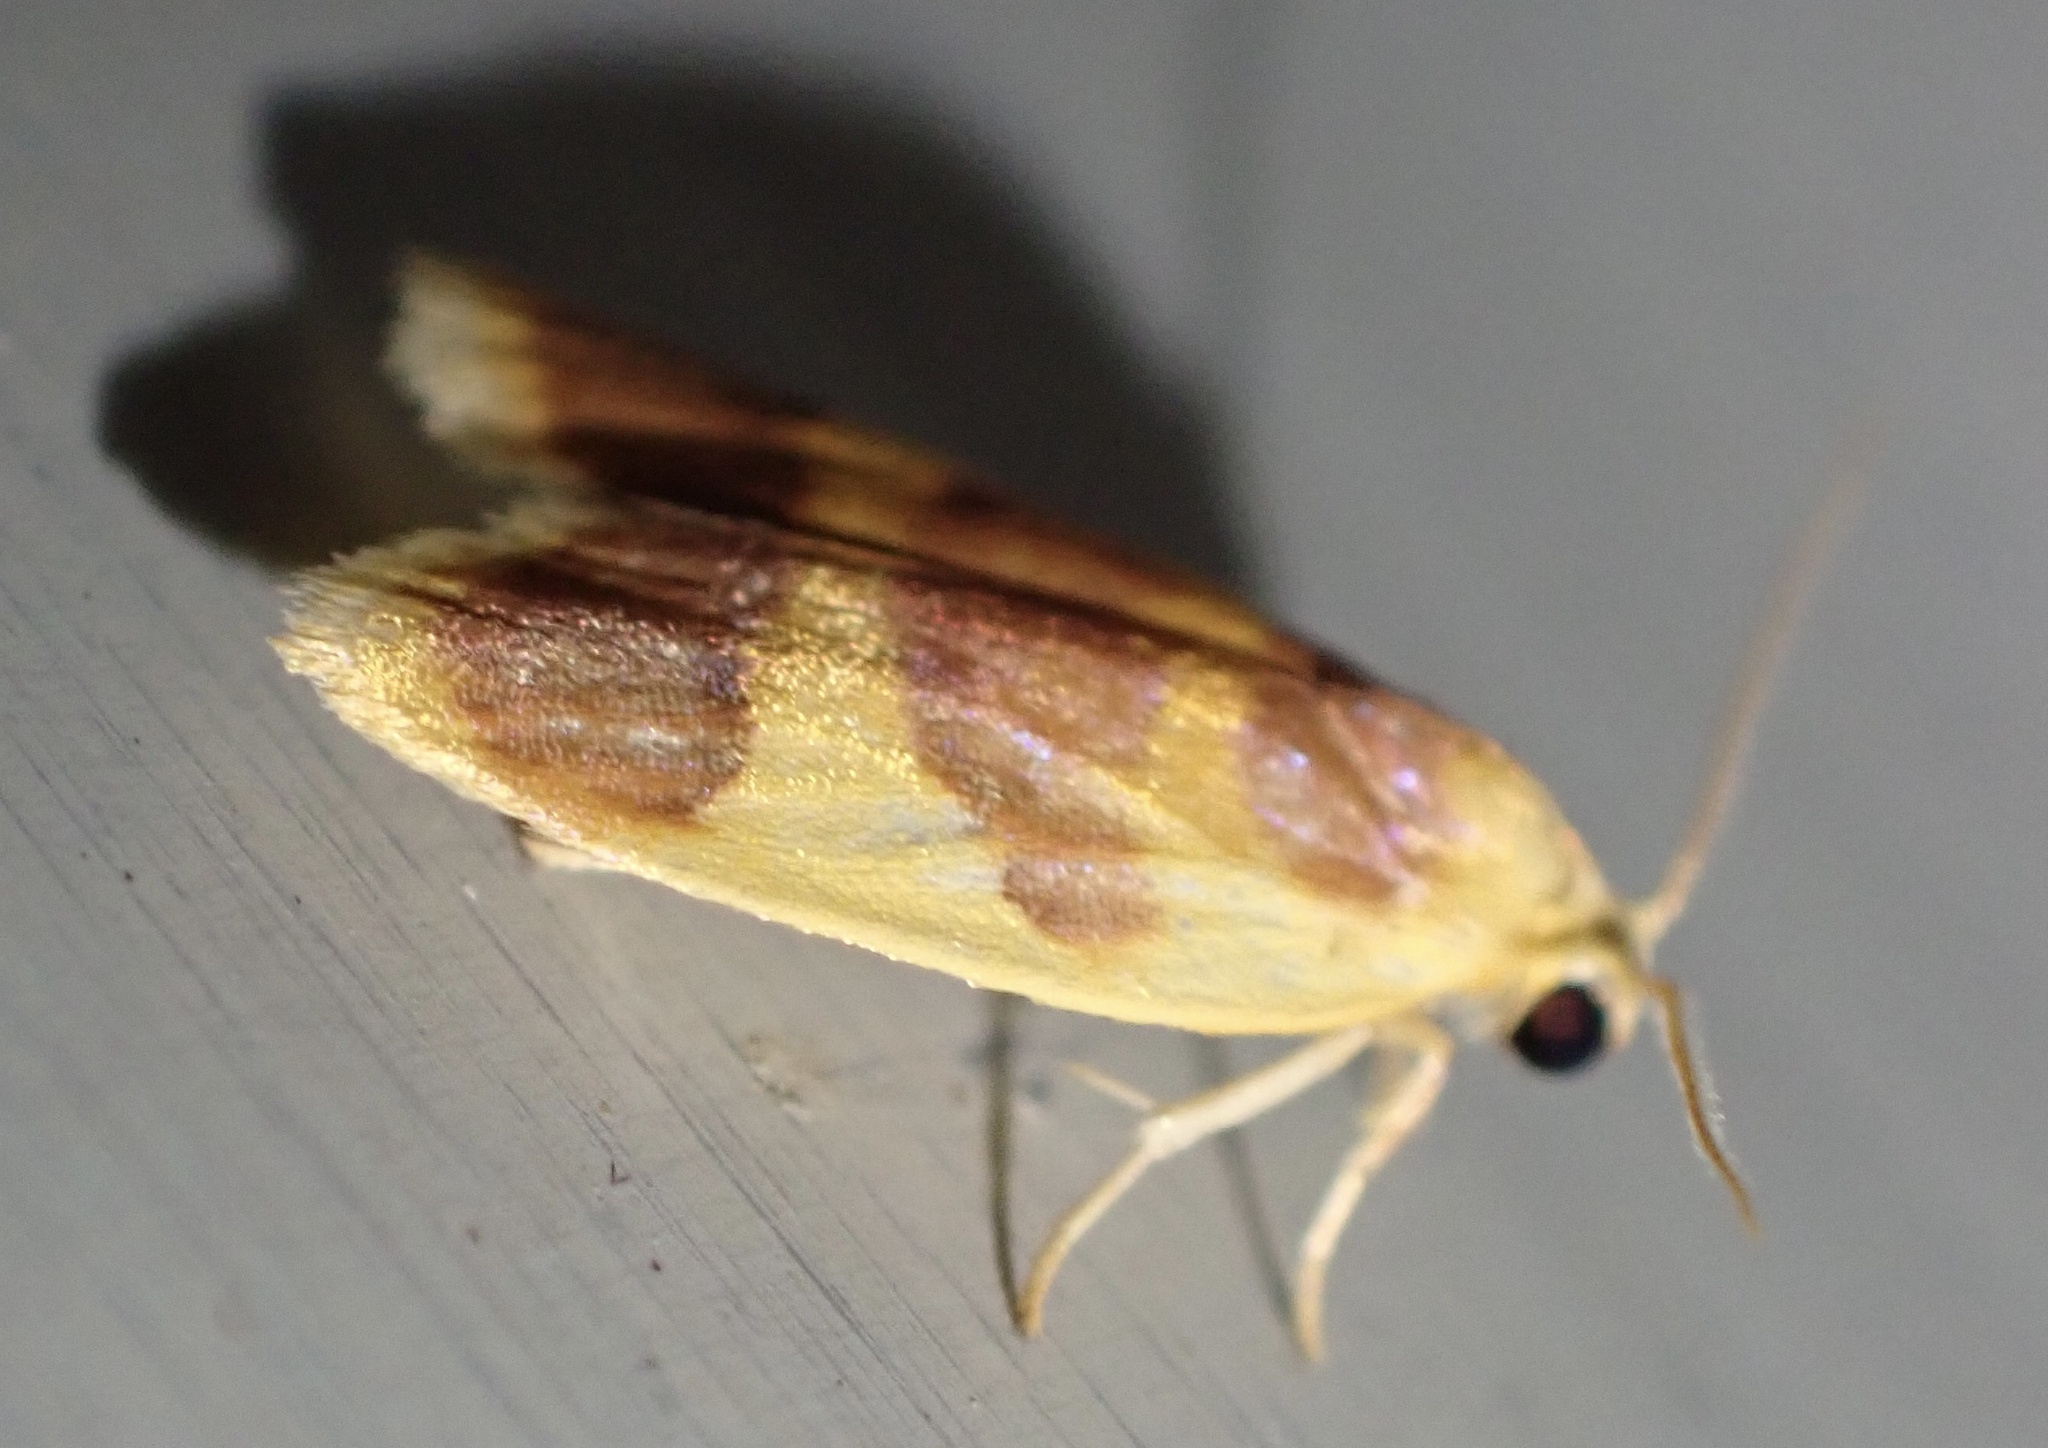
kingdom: Animalia
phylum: Arthropoda
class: Insecta
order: Lepidoptera
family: Erebidae
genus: Parascotia
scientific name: Parascotia fuliginaria
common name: Waved black
